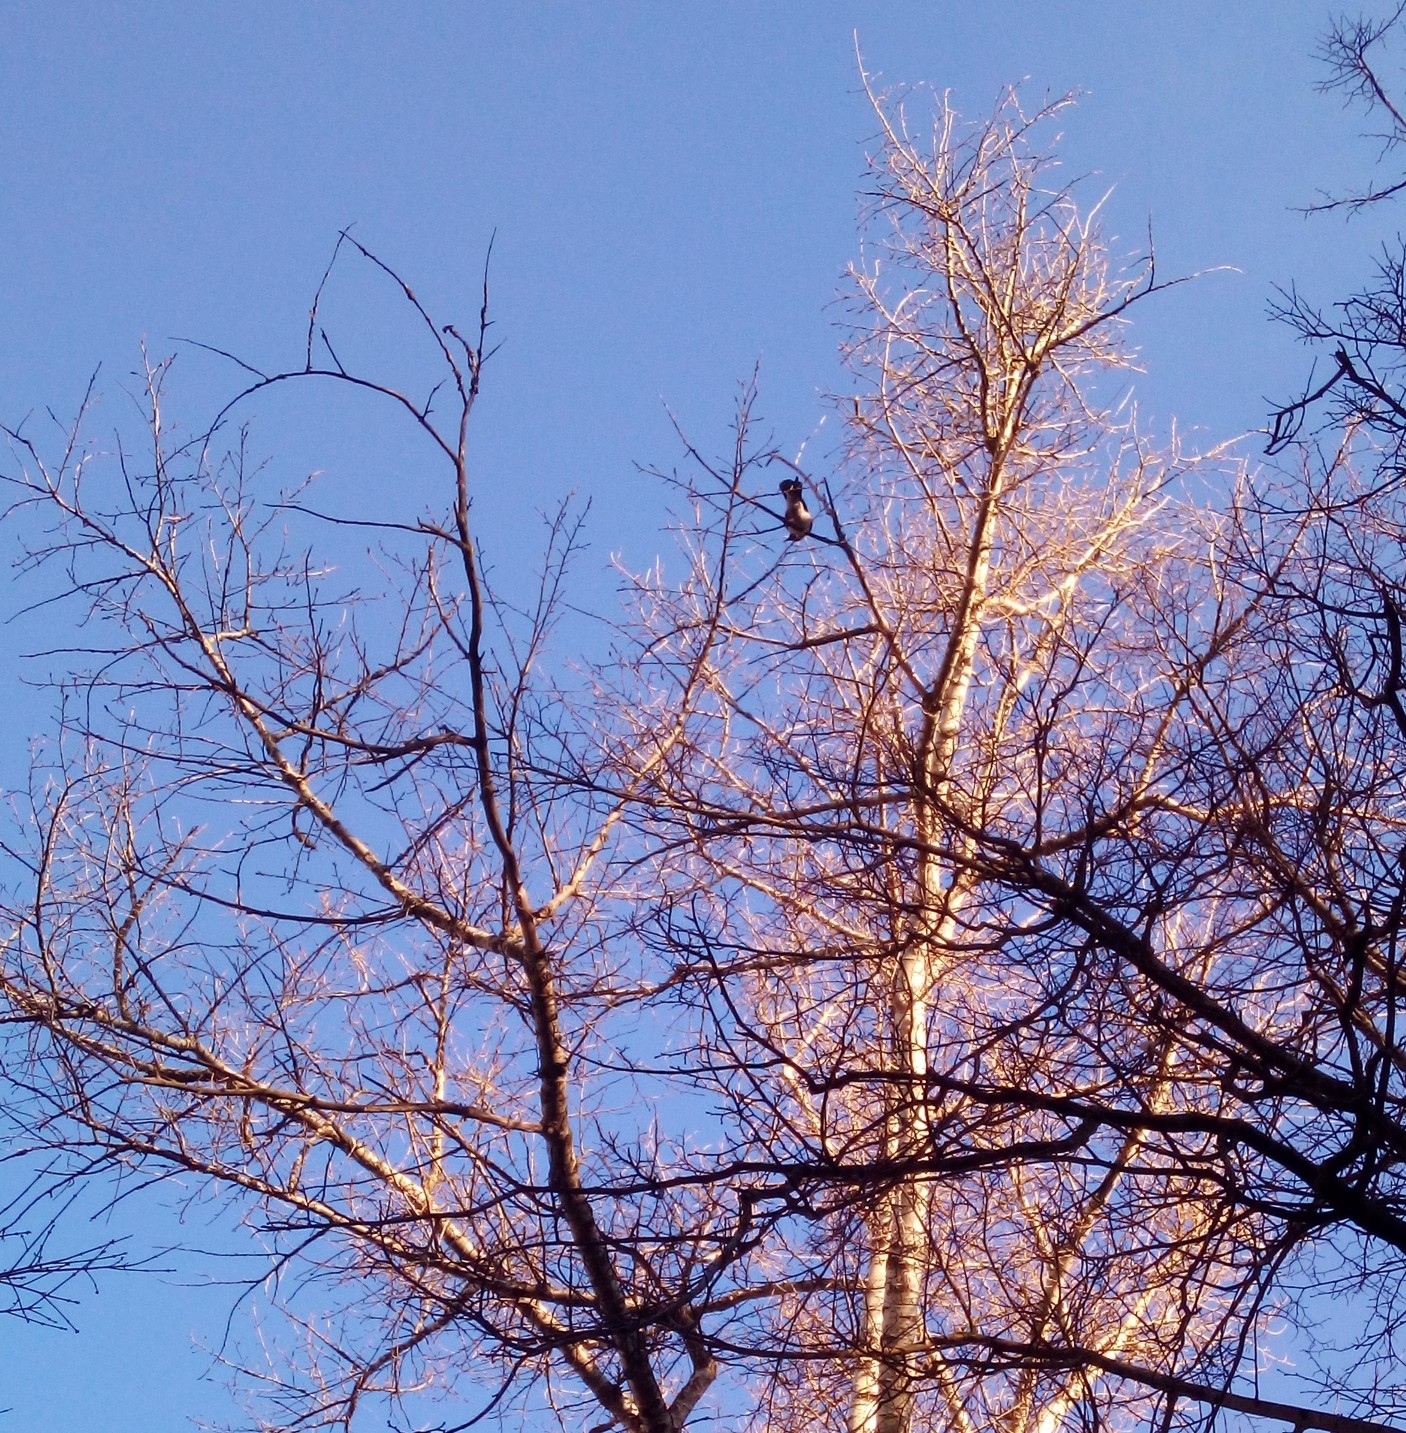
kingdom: Animalia
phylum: Chordata
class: Aves
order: Passeriformes
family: Corvidae
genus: Corvus
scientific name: Corvus cornix
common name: Hooded crow
